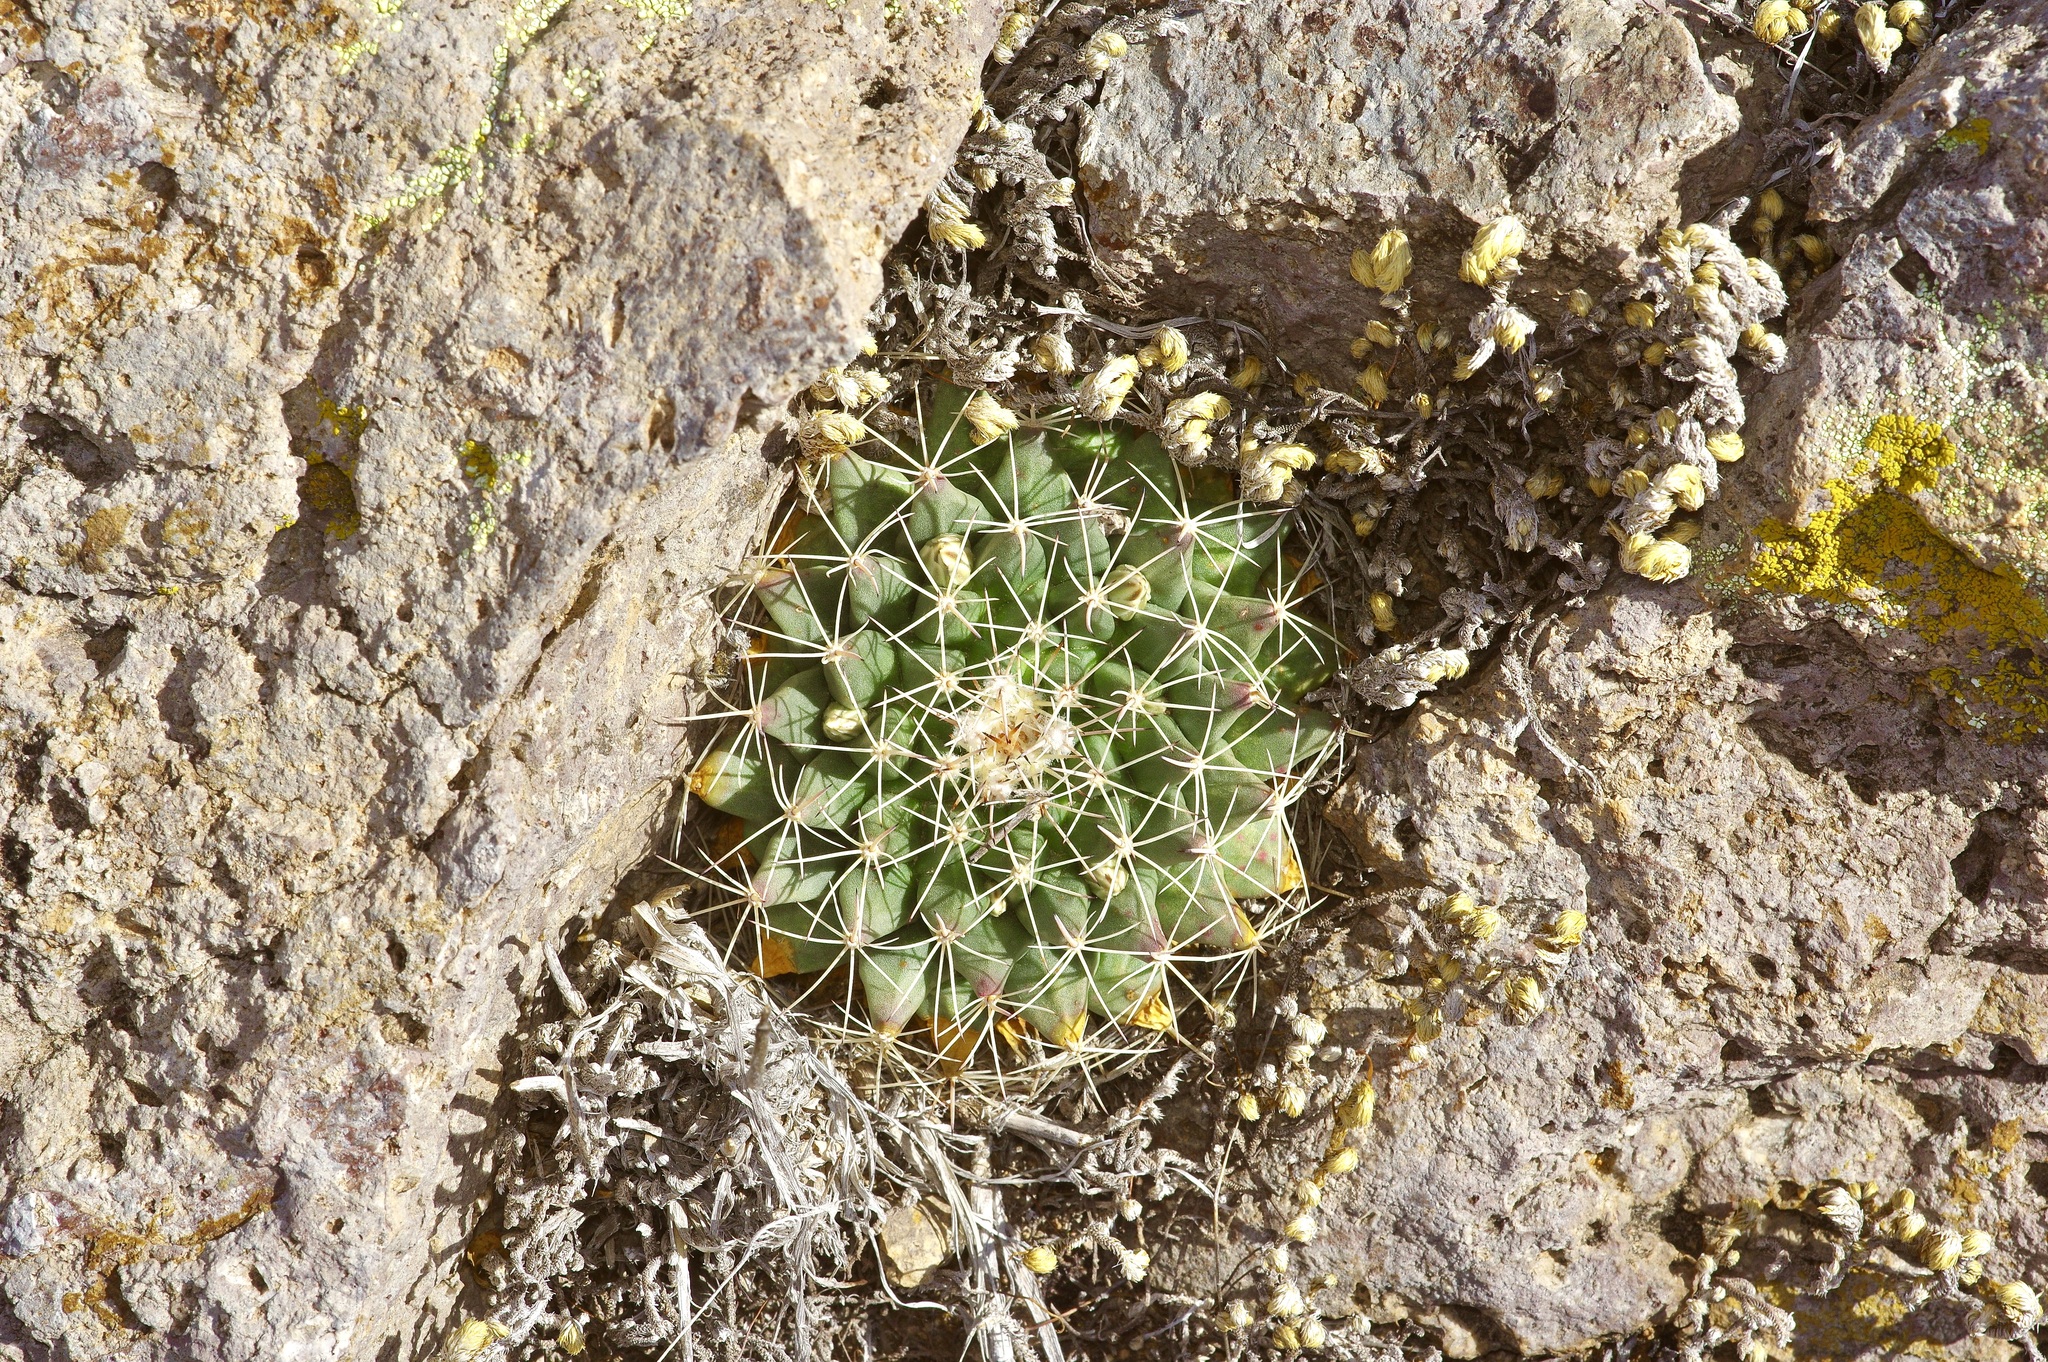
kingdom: Plantae
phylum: Tracheophyta
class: Magnoliopsida
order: Caryophyllales
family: Cactaceae
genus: Mammillaria
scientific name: Mammillaria heyderi
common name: Little nipple cactus
